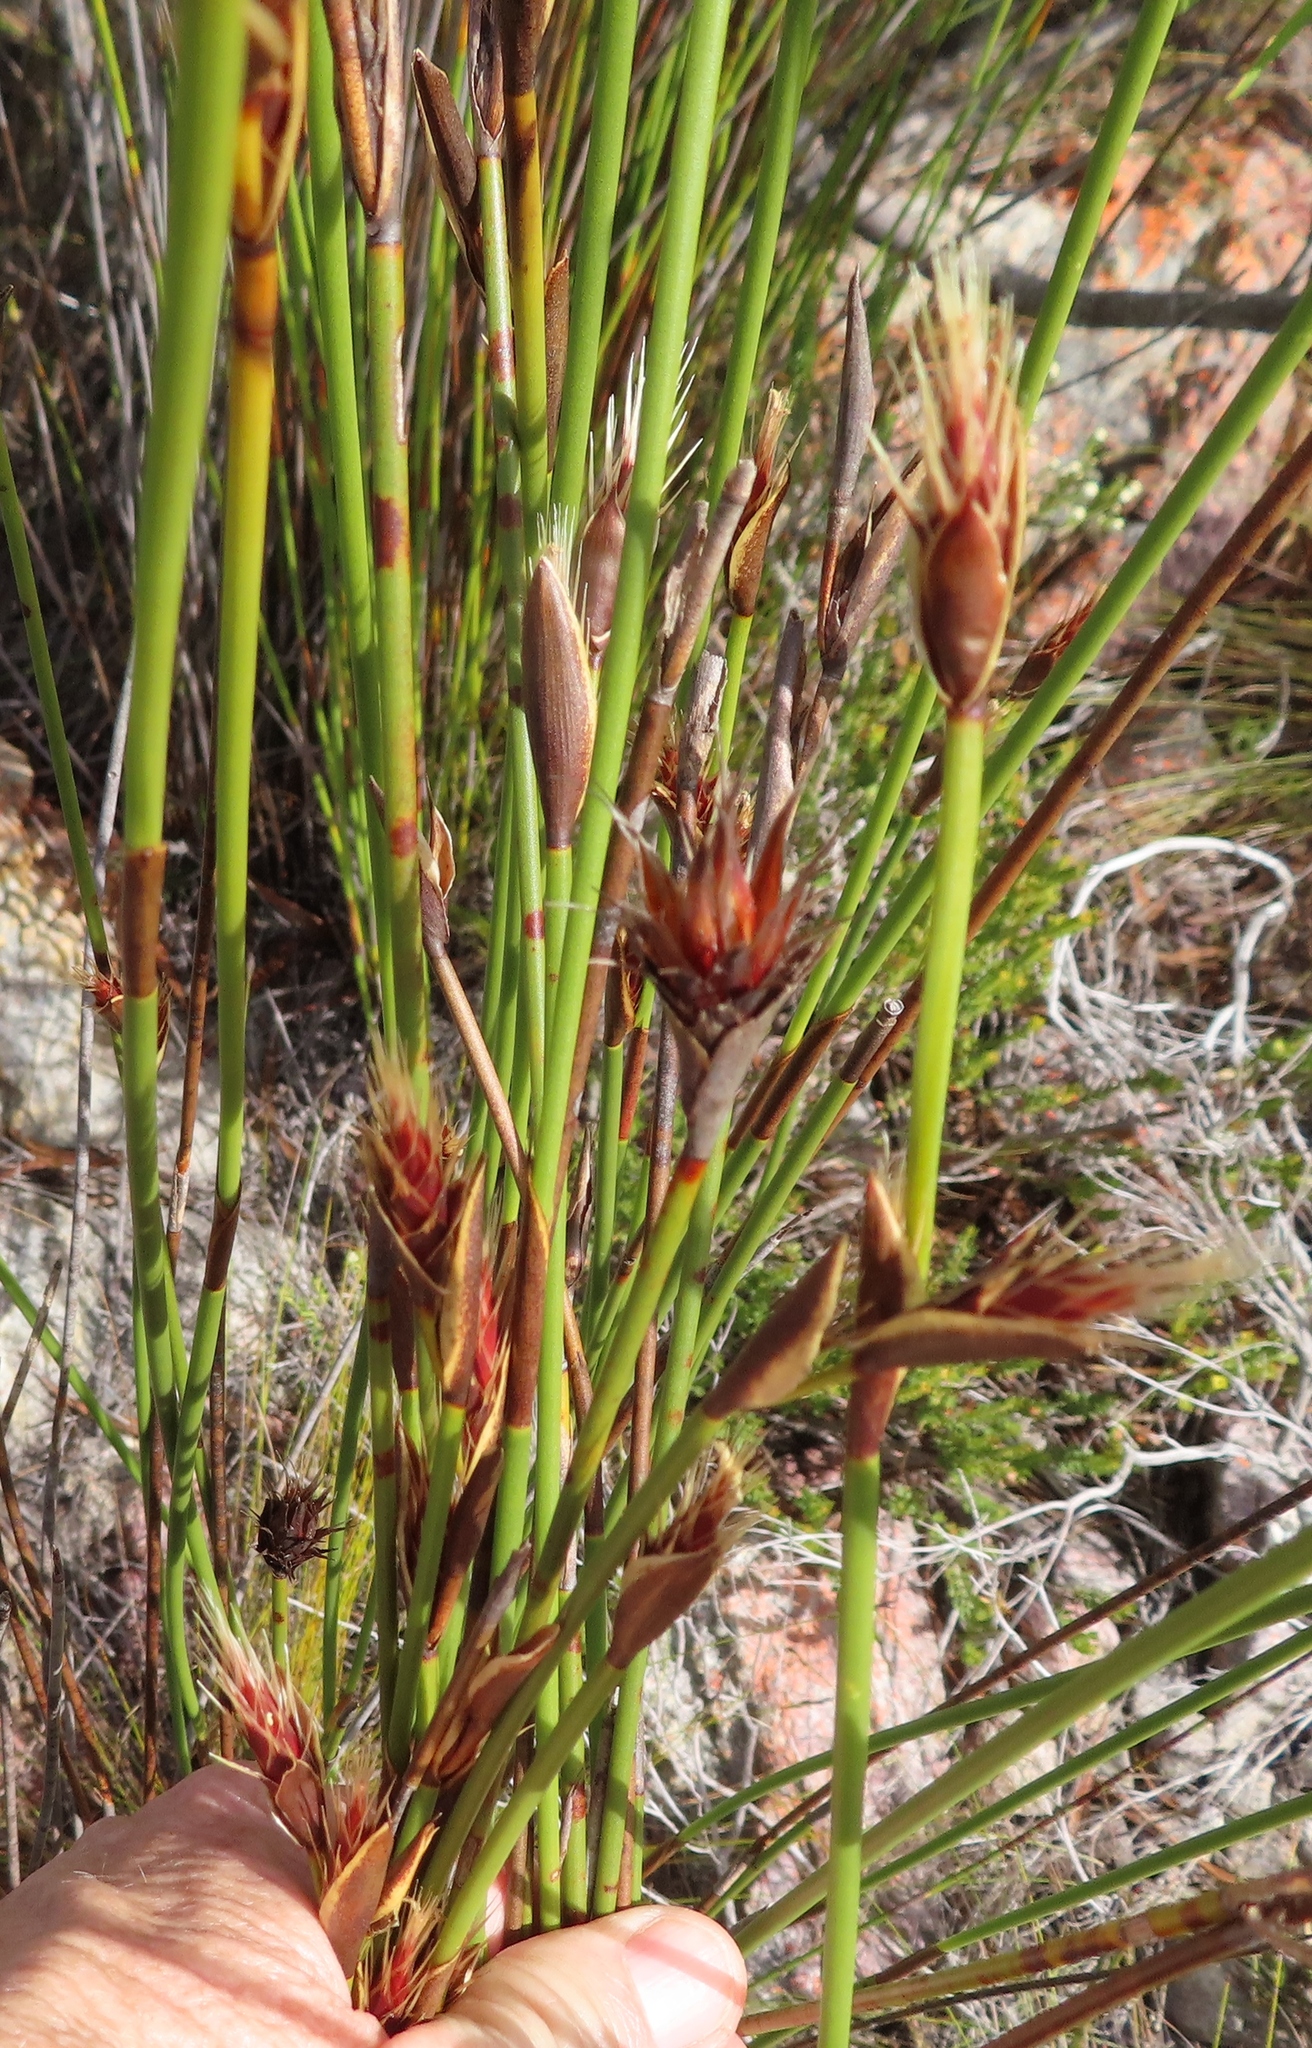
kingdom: Plantae
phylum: Tracheophyta
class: Liliopsida
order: Poales
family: Restionaceae
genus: Hypodiscus
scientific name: Hypodiscus aristatus
